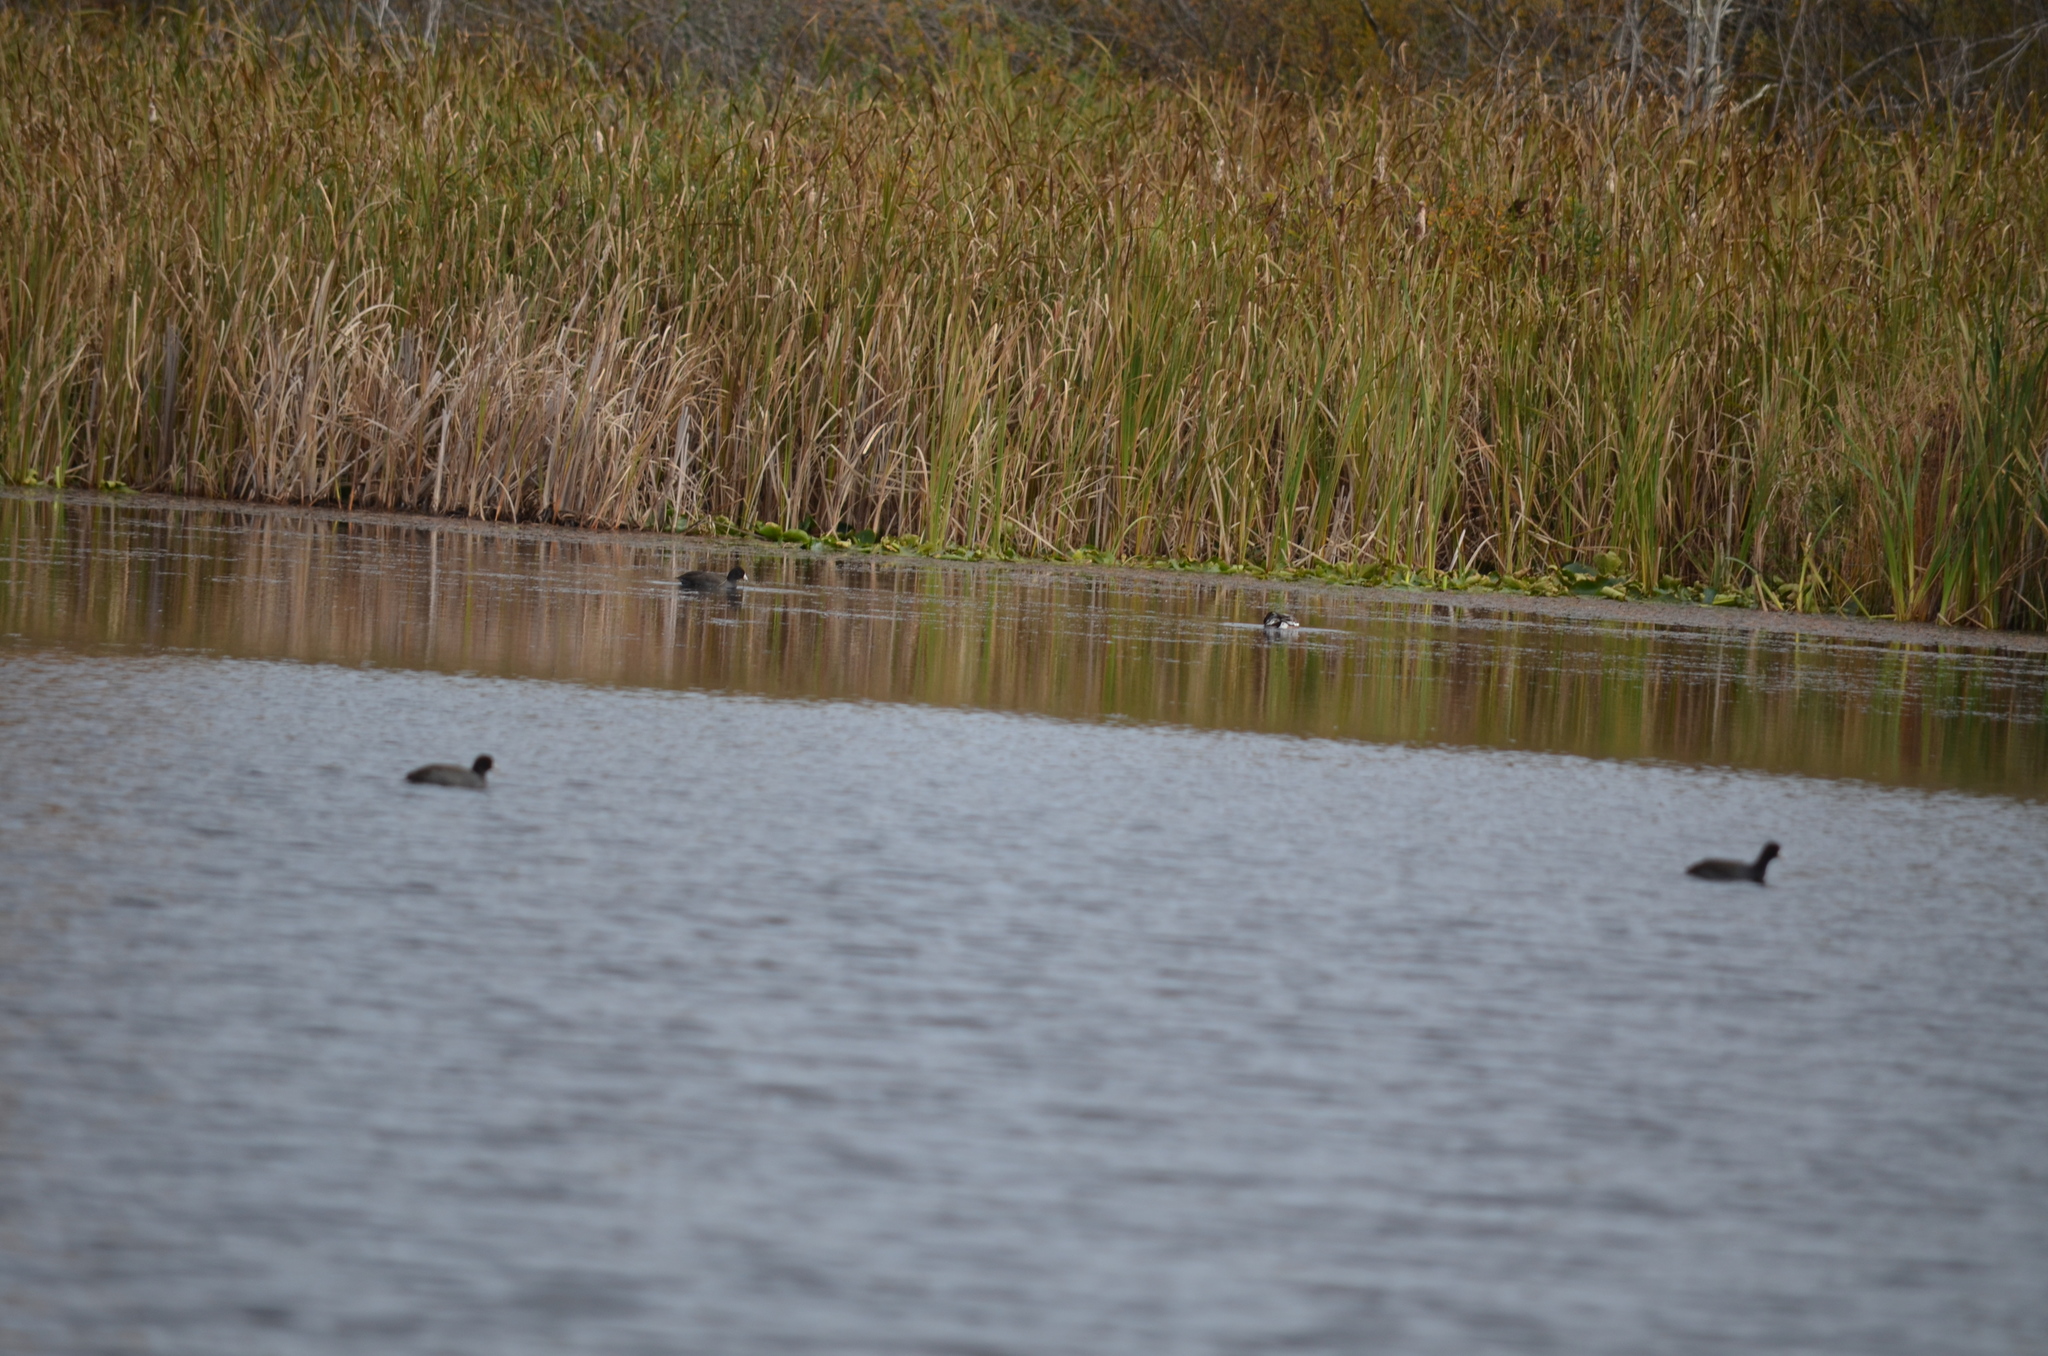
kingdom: Animalia
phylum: Chordata
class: Aves
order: Gruiformes
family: Rallidae
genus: Fulica
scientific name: Fulica americana
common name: American coot
